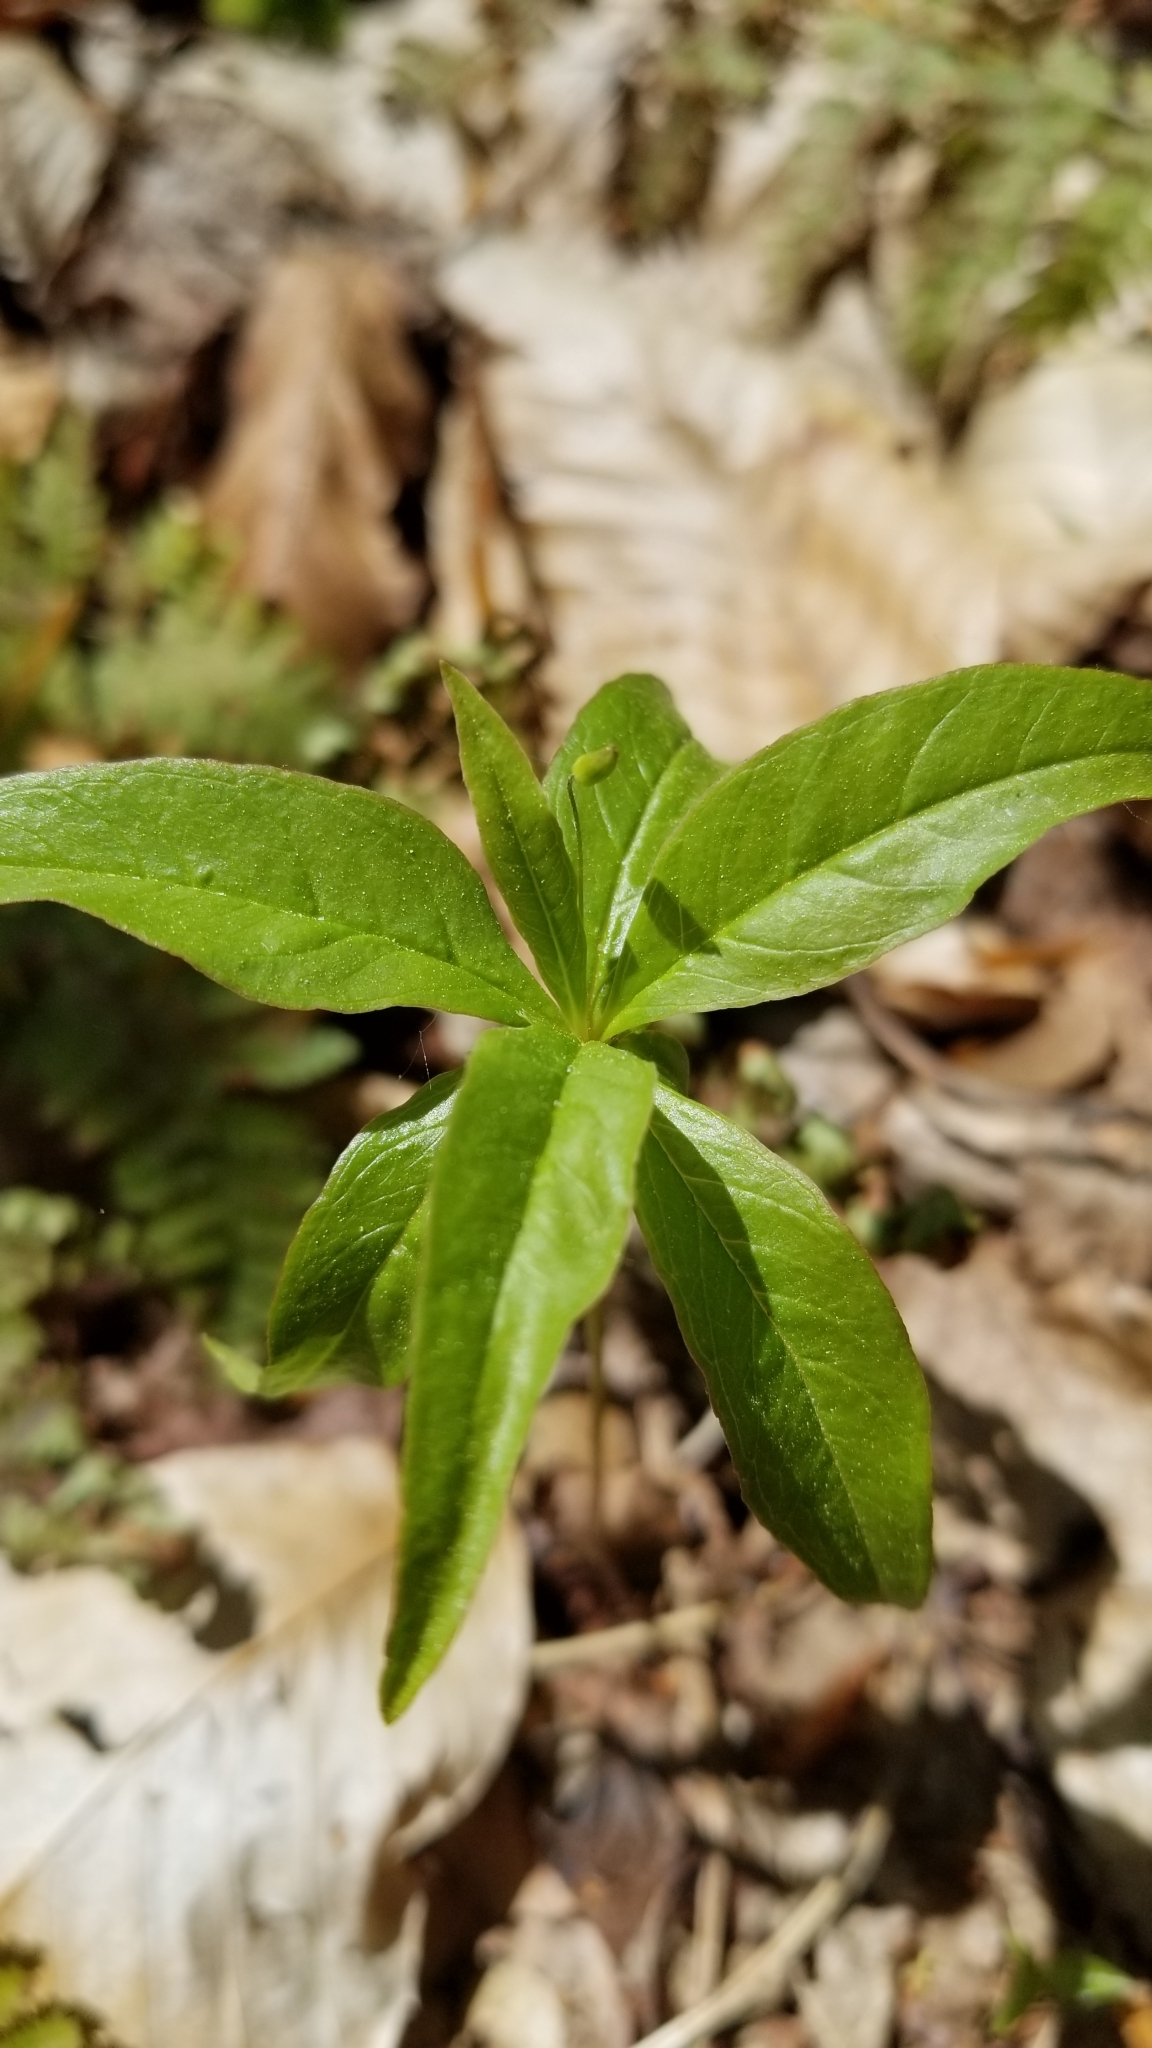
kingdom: Plantae
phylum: Tracheophyta
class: Magnoliopsida
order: Ericales
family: Primulaceae
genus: Lysimachia
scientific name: Lysimachia borealis
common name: American starflower
